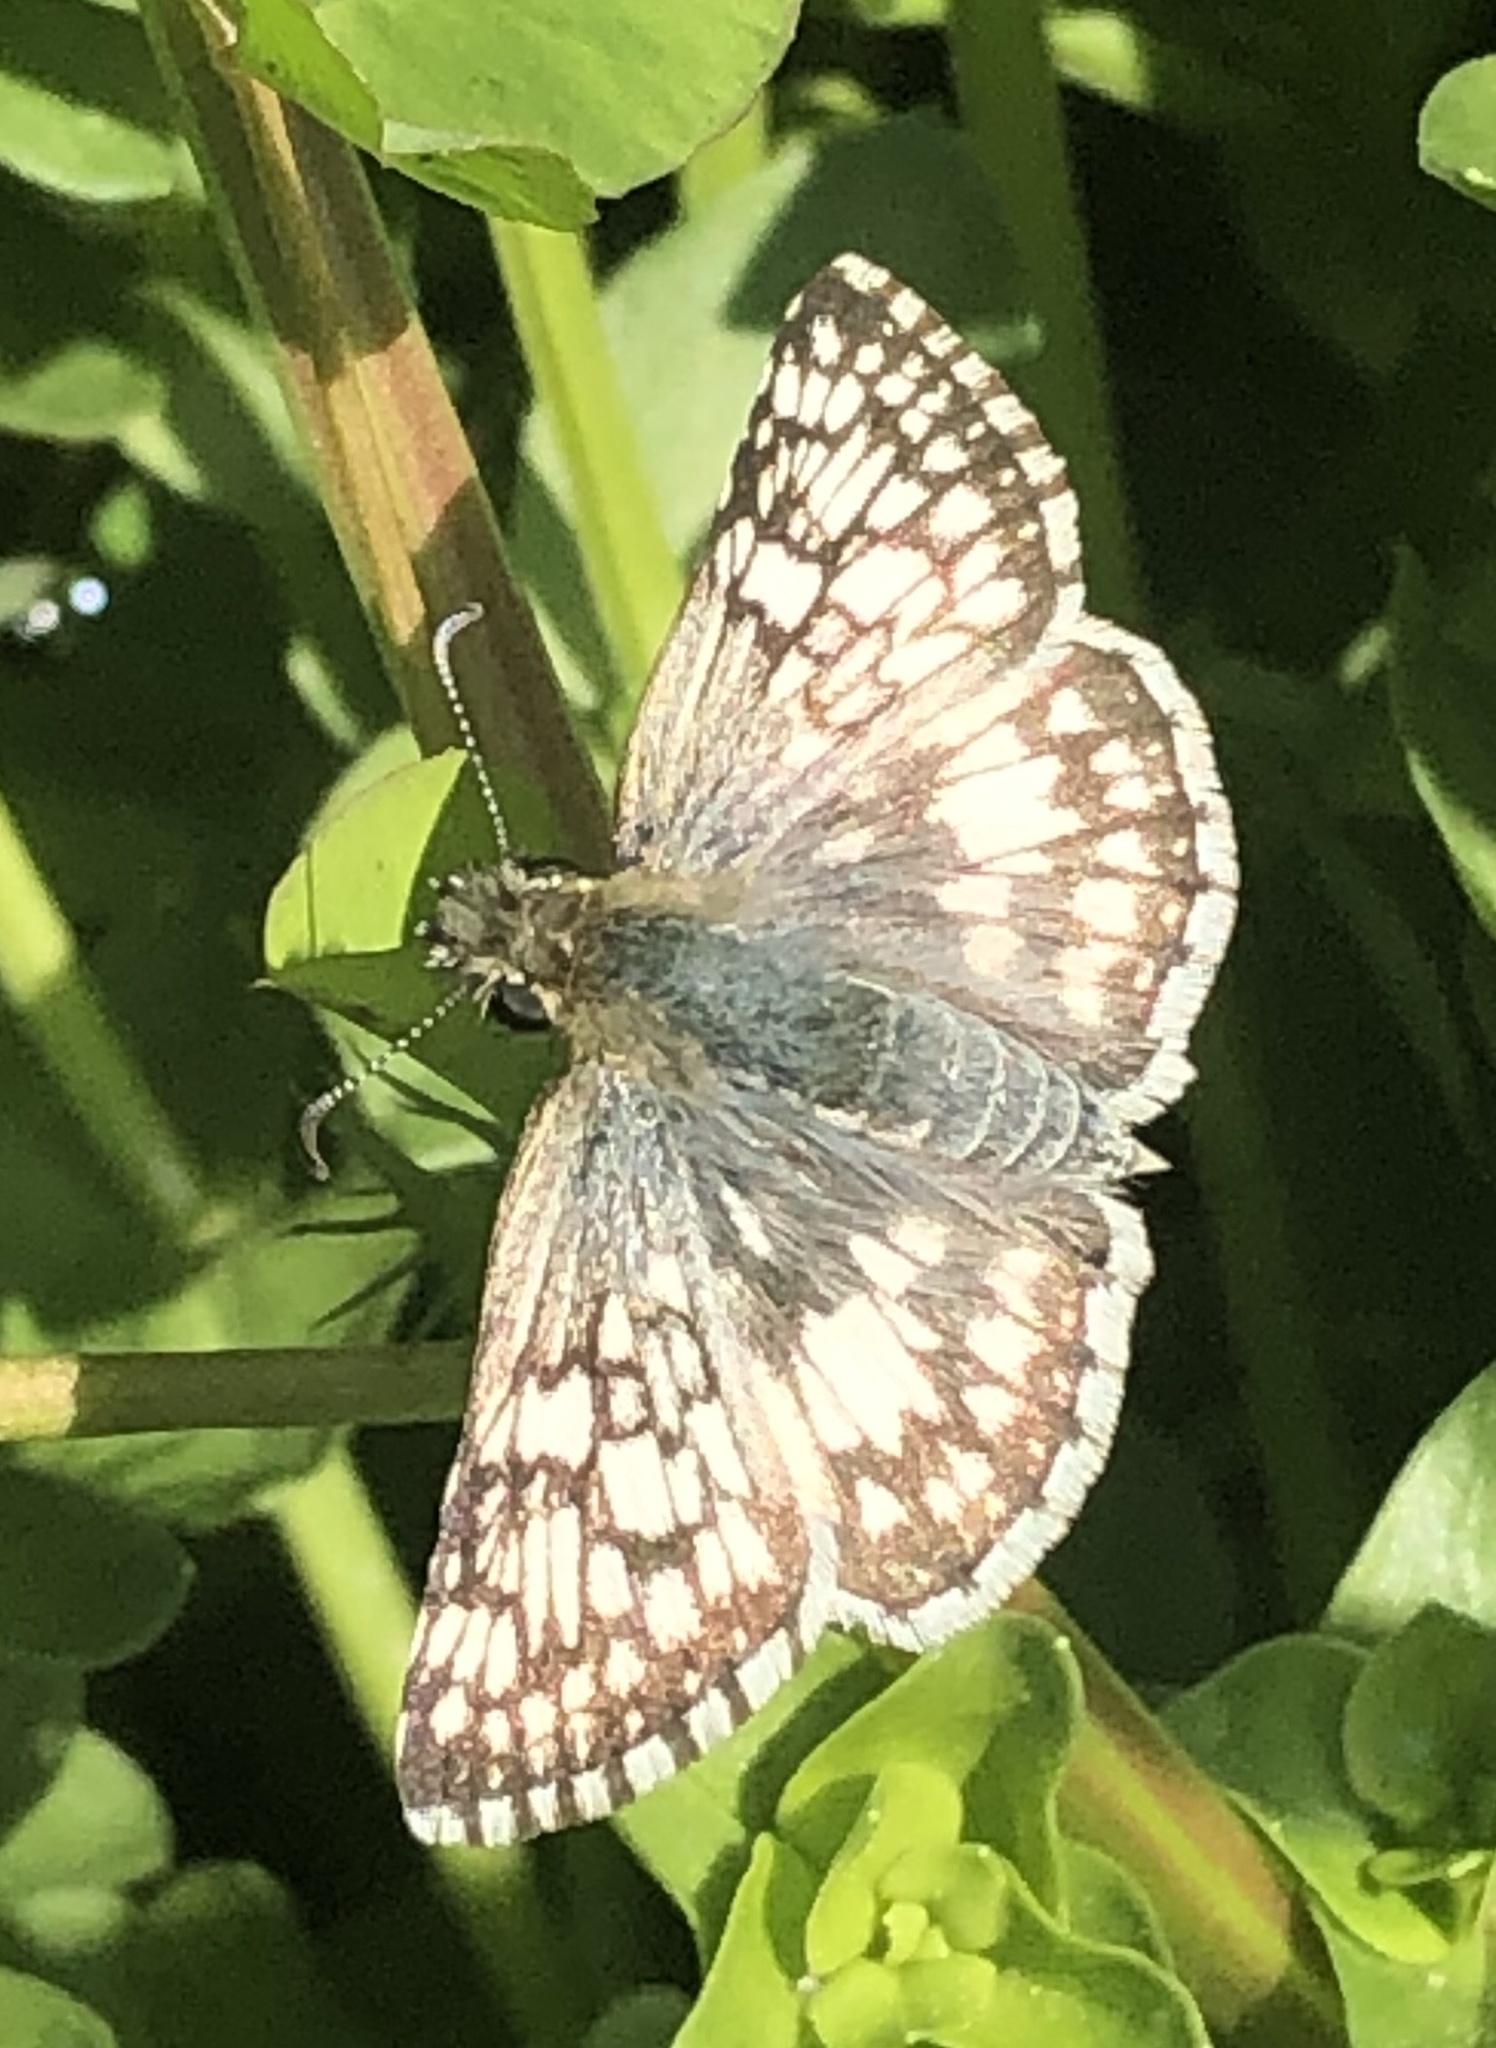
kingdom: Animalia
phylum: Arthropoda
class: Insecta
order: Lepidoptera
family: Hesperiidae
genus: Burnsius
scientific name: Burnsius
